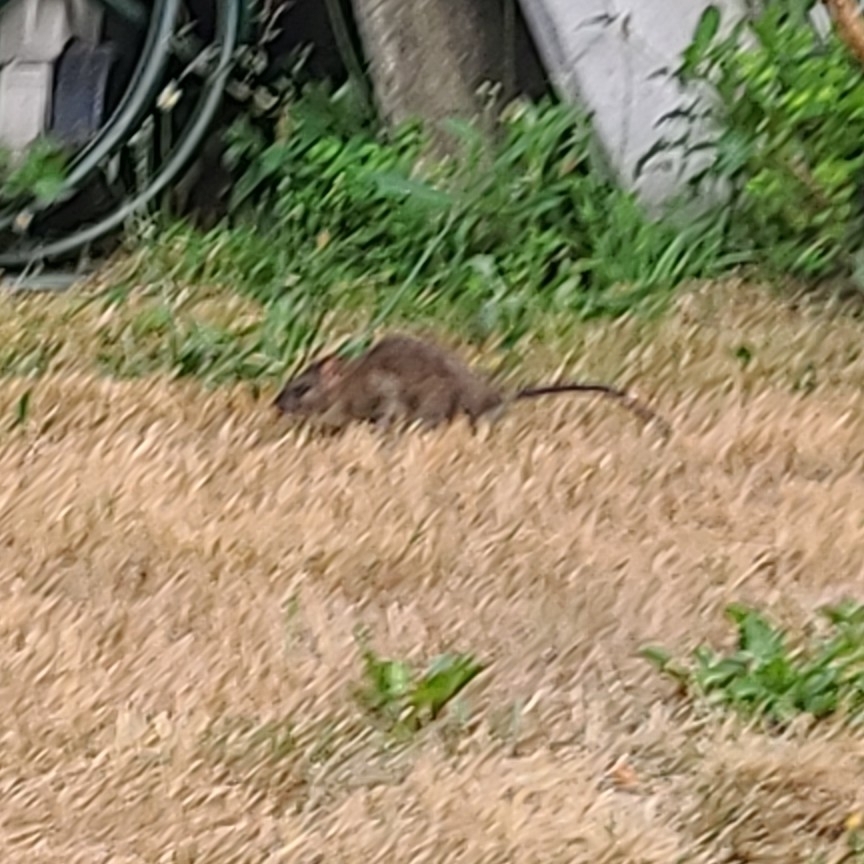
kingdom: Animalia
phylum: Chordata
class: Mammalia
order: Rodentia
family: Muridae
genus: Rattus
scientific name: Rattus norvegicus
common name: Brown rat
